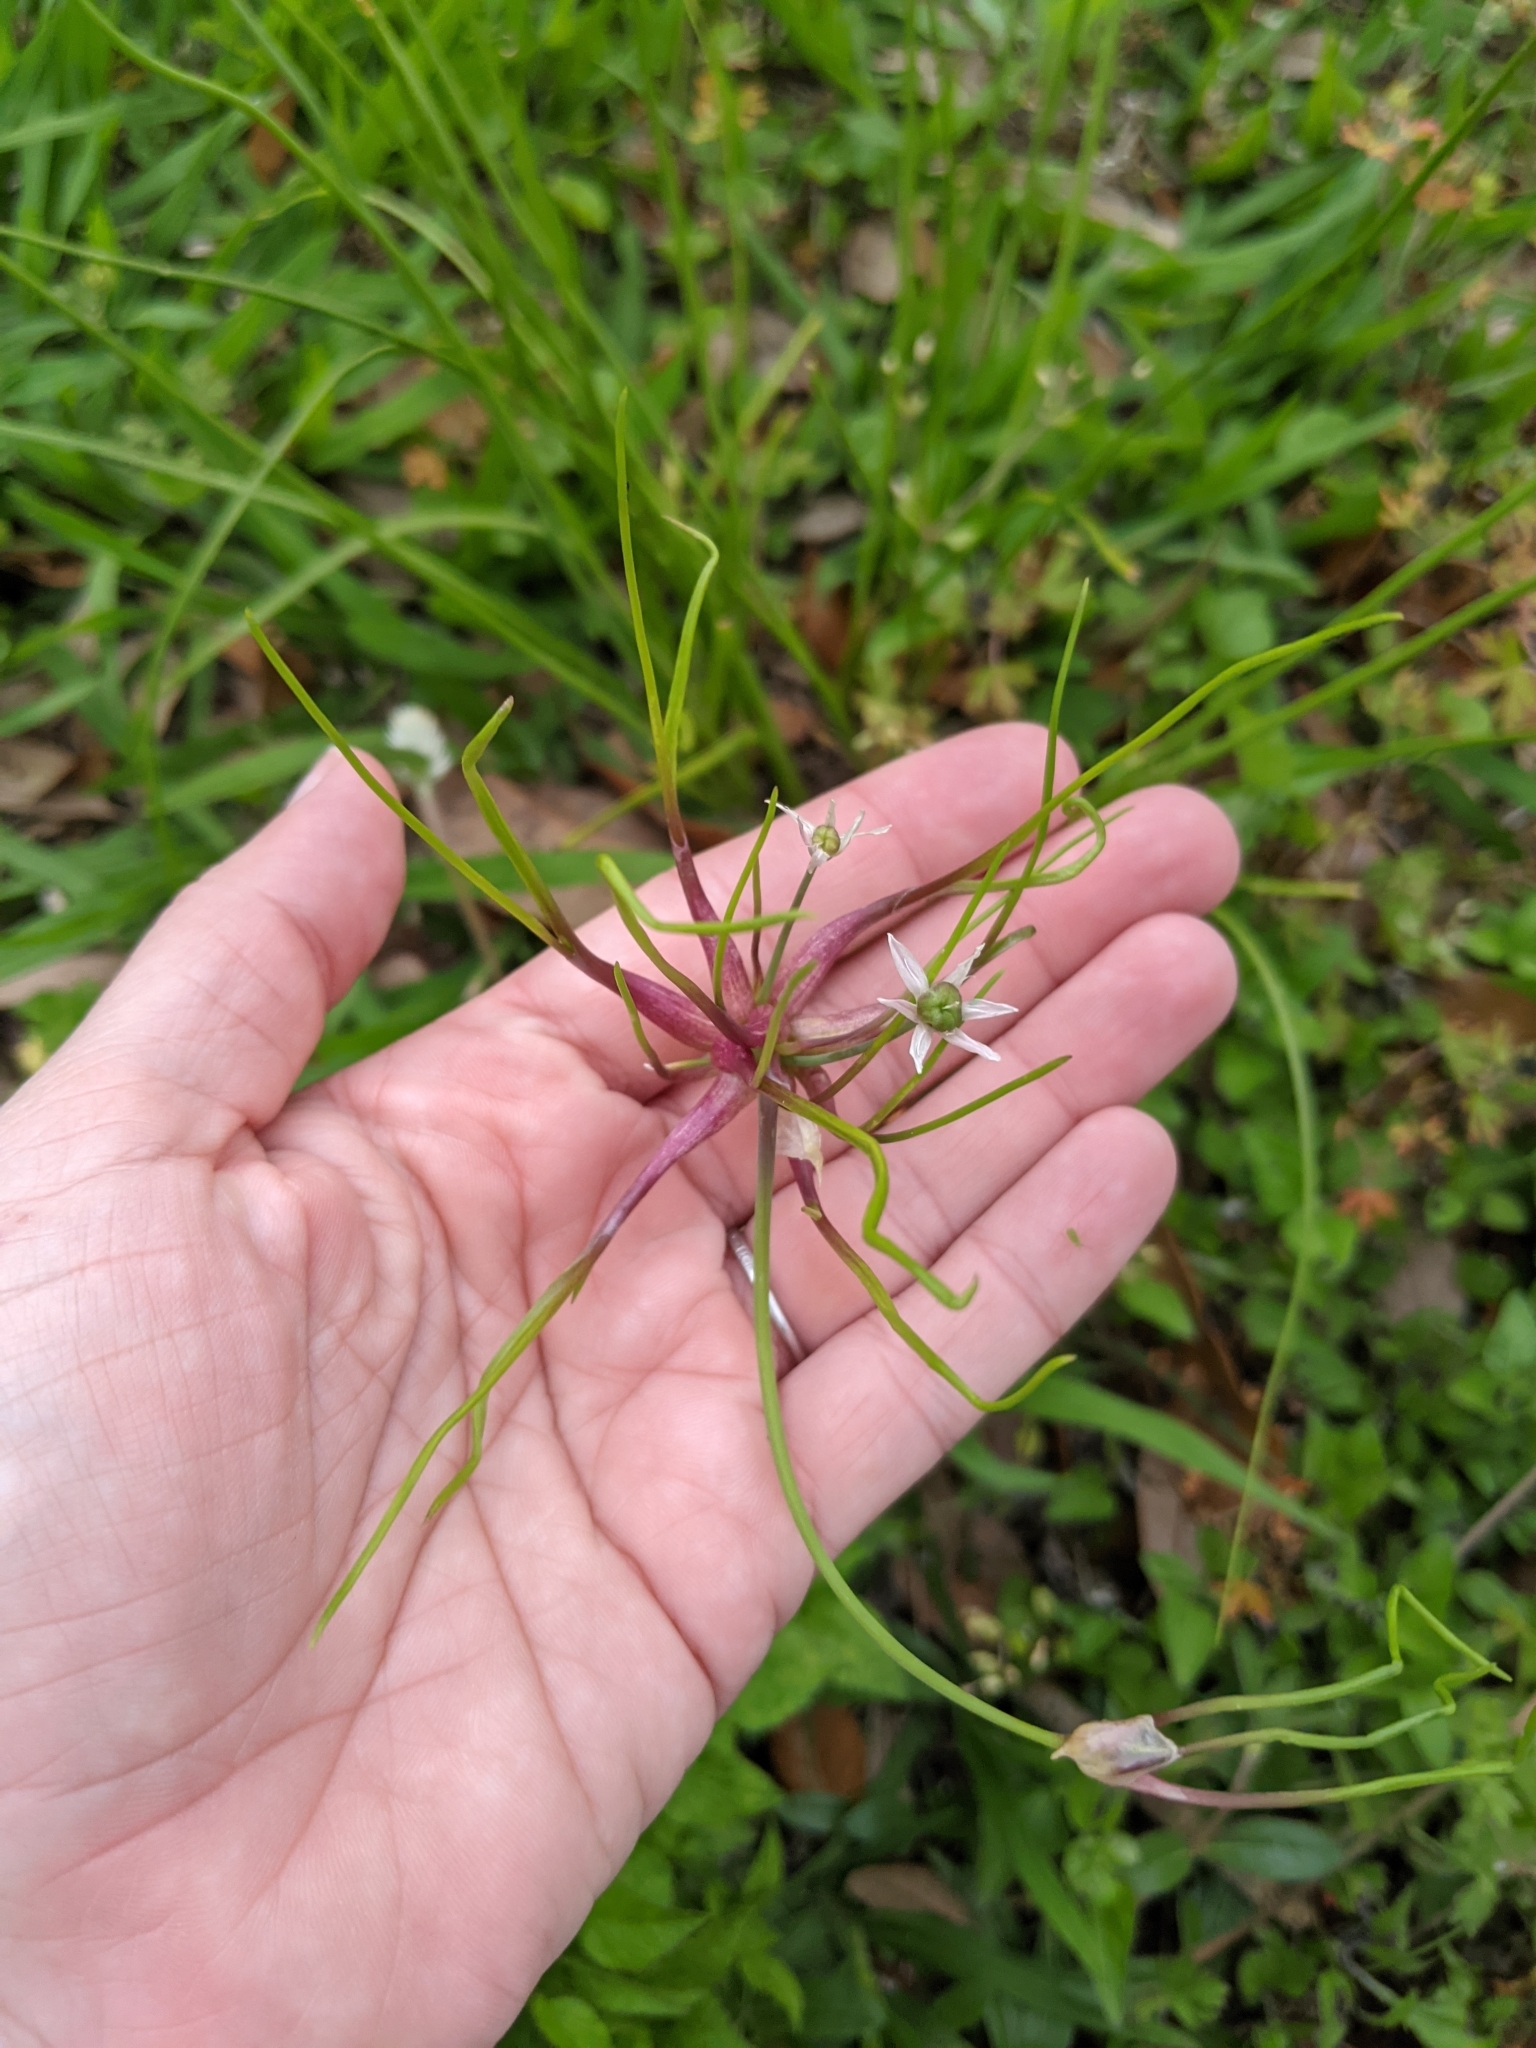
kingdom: Plantae
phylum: Tracheophyta
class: Liliopsida
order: Asparagales
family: Amaryllidaceae
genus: Allium
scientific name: Allium canadense
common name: Meadow garlic
